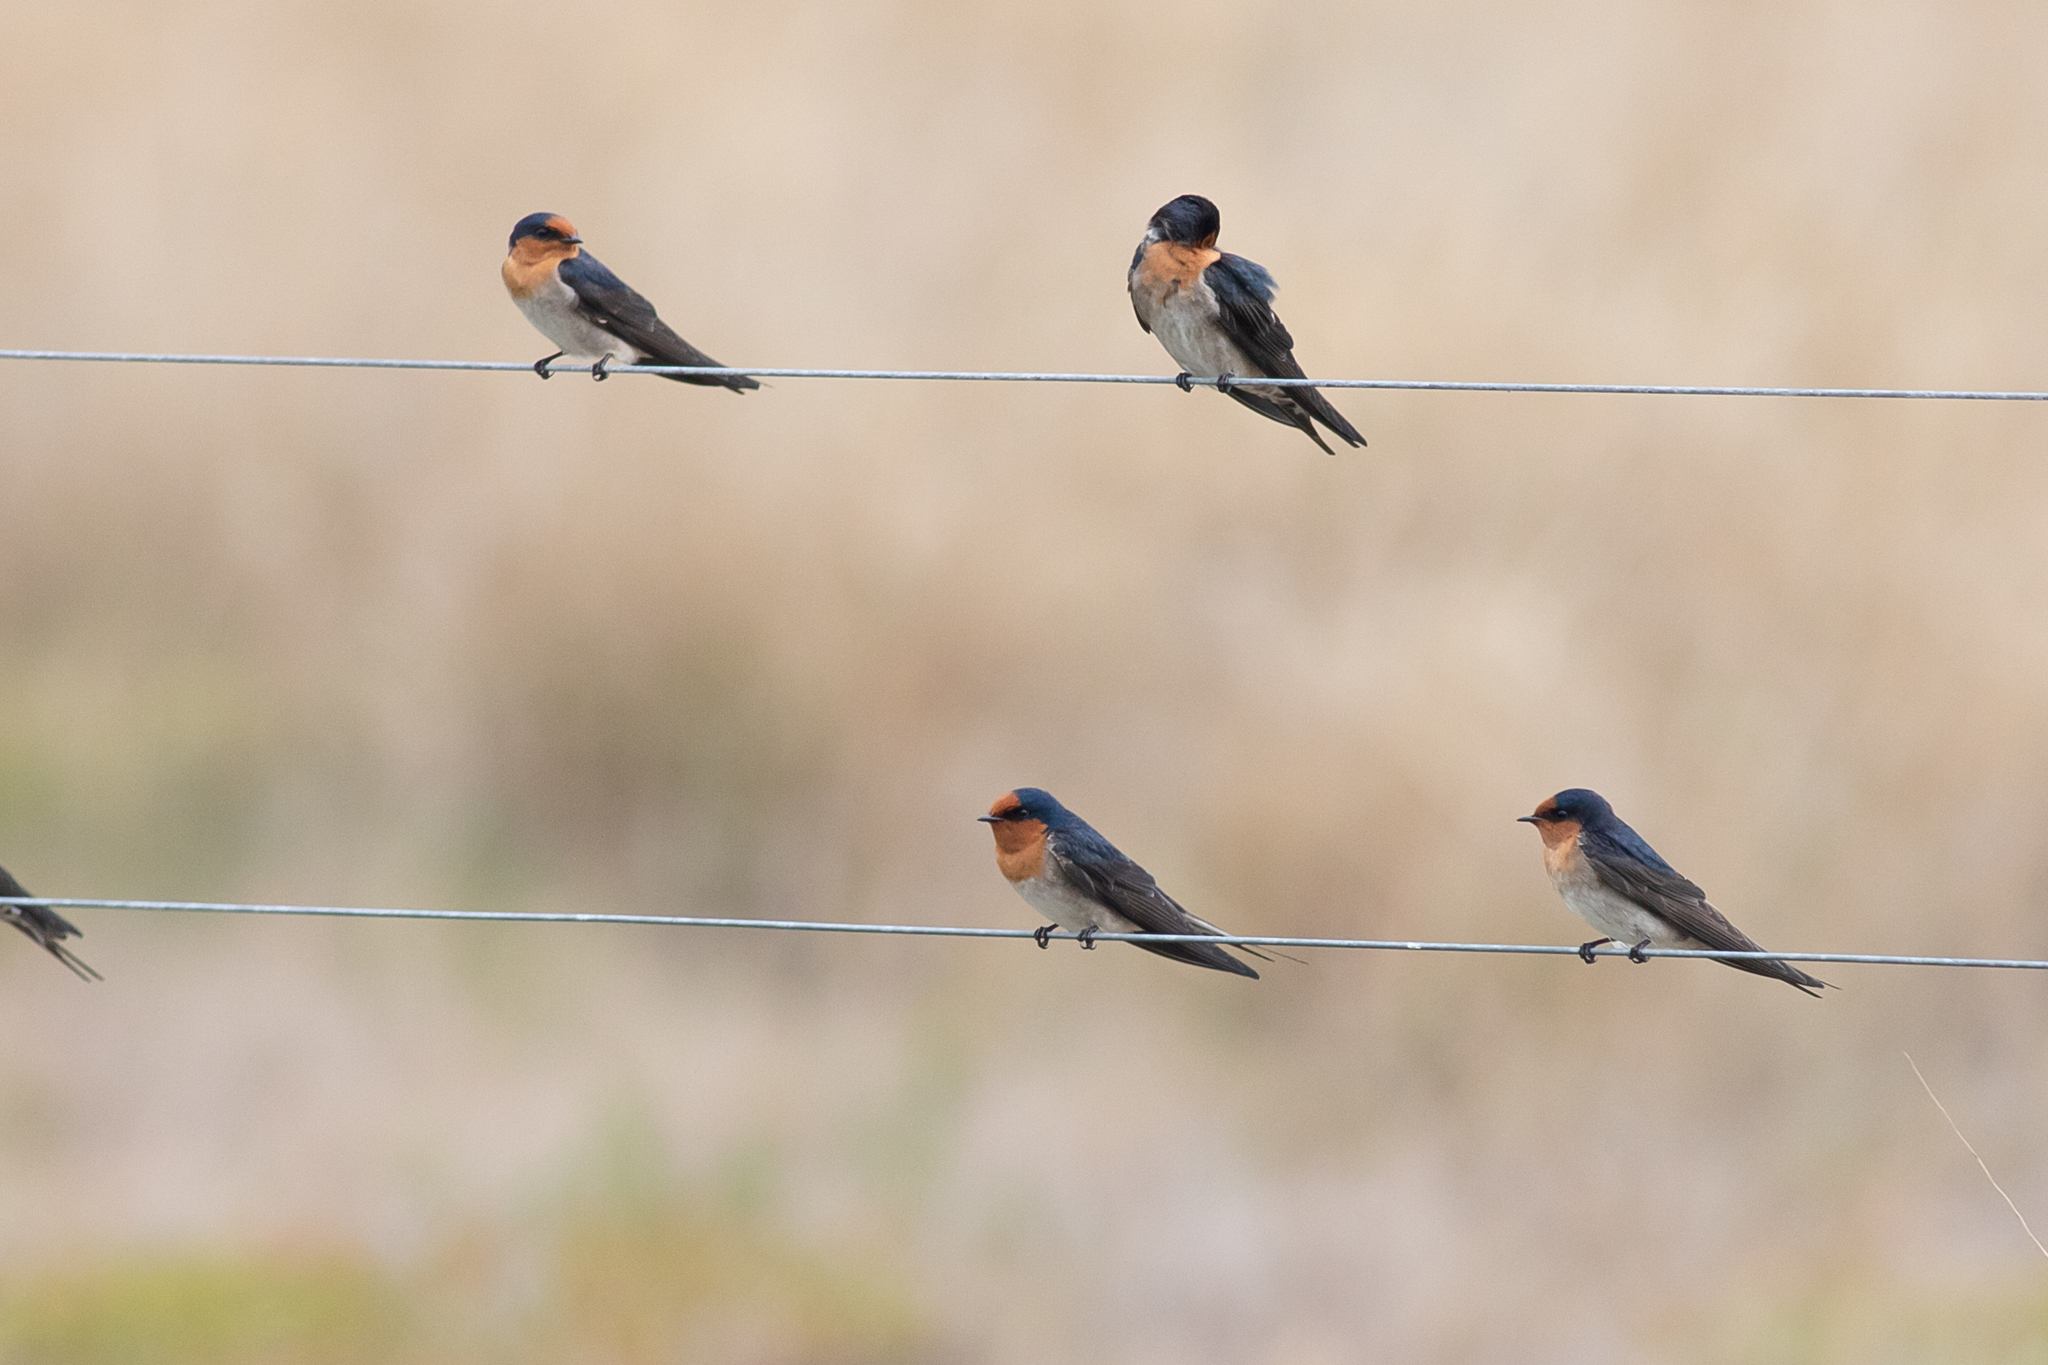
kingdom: Animalia
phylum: Chordata
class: Aves
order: Passeriformes
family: Hirundinidae
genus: Hirundo
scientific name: Hirundo neoxena
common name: Welcome swallow
